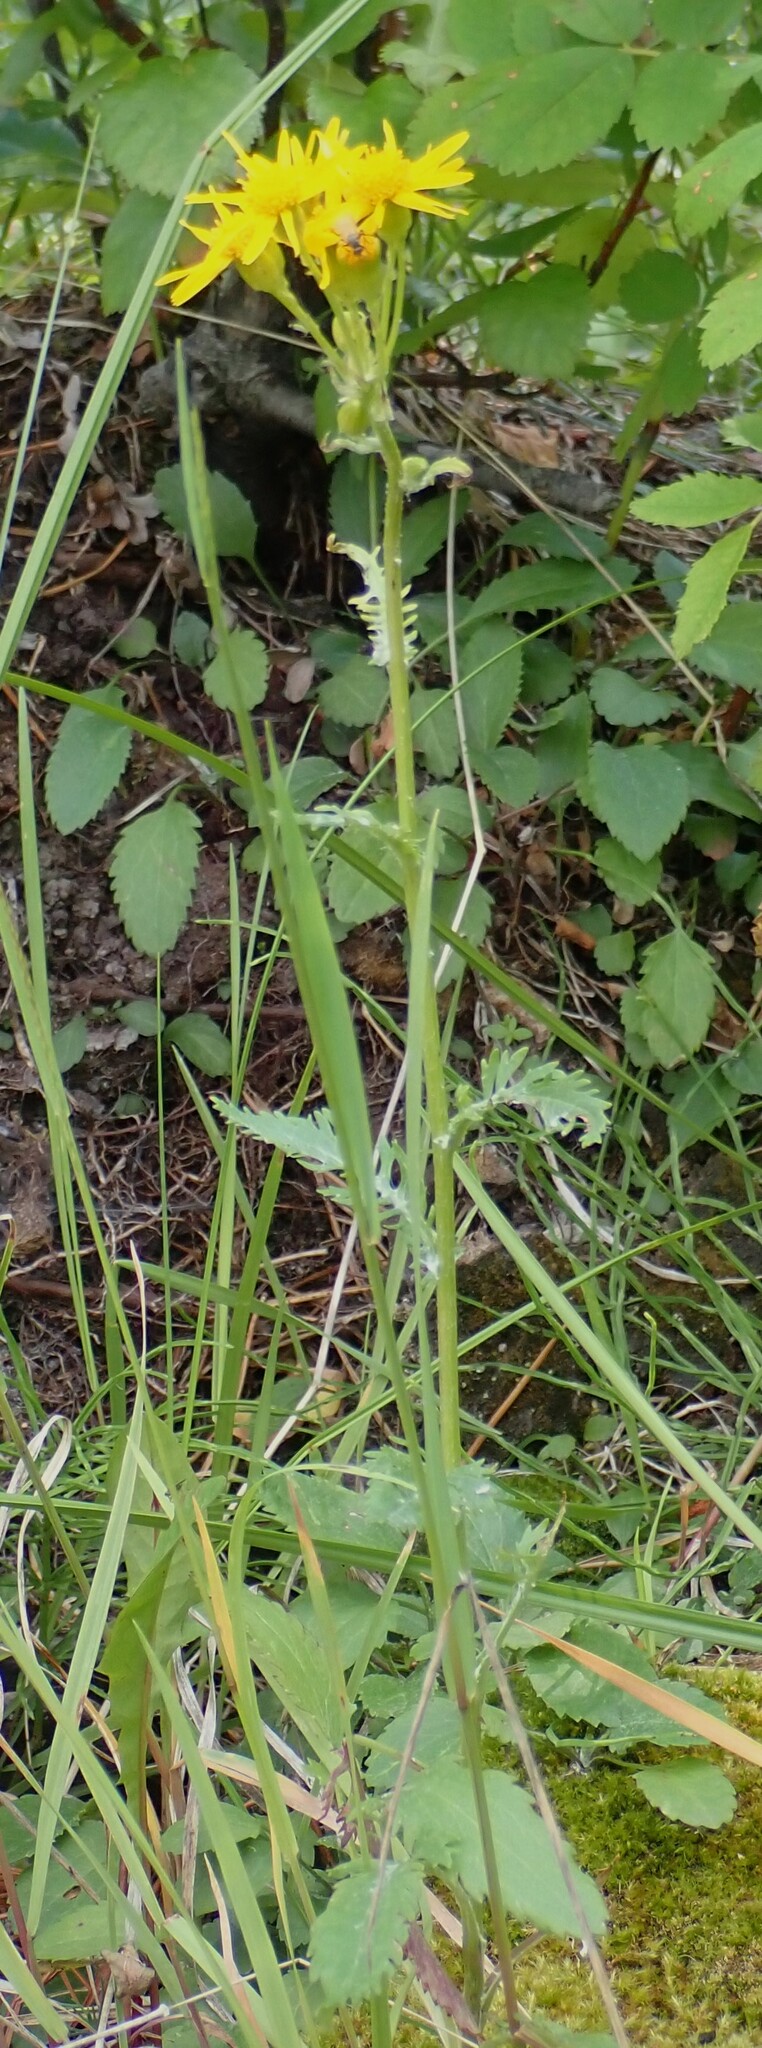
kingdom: Plantae
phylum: Tracheophyta
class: Magnoliopsida
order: Asterales
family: Asteraceae
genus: Packera
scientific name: Packera paupercula
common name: Balsam groundsel
